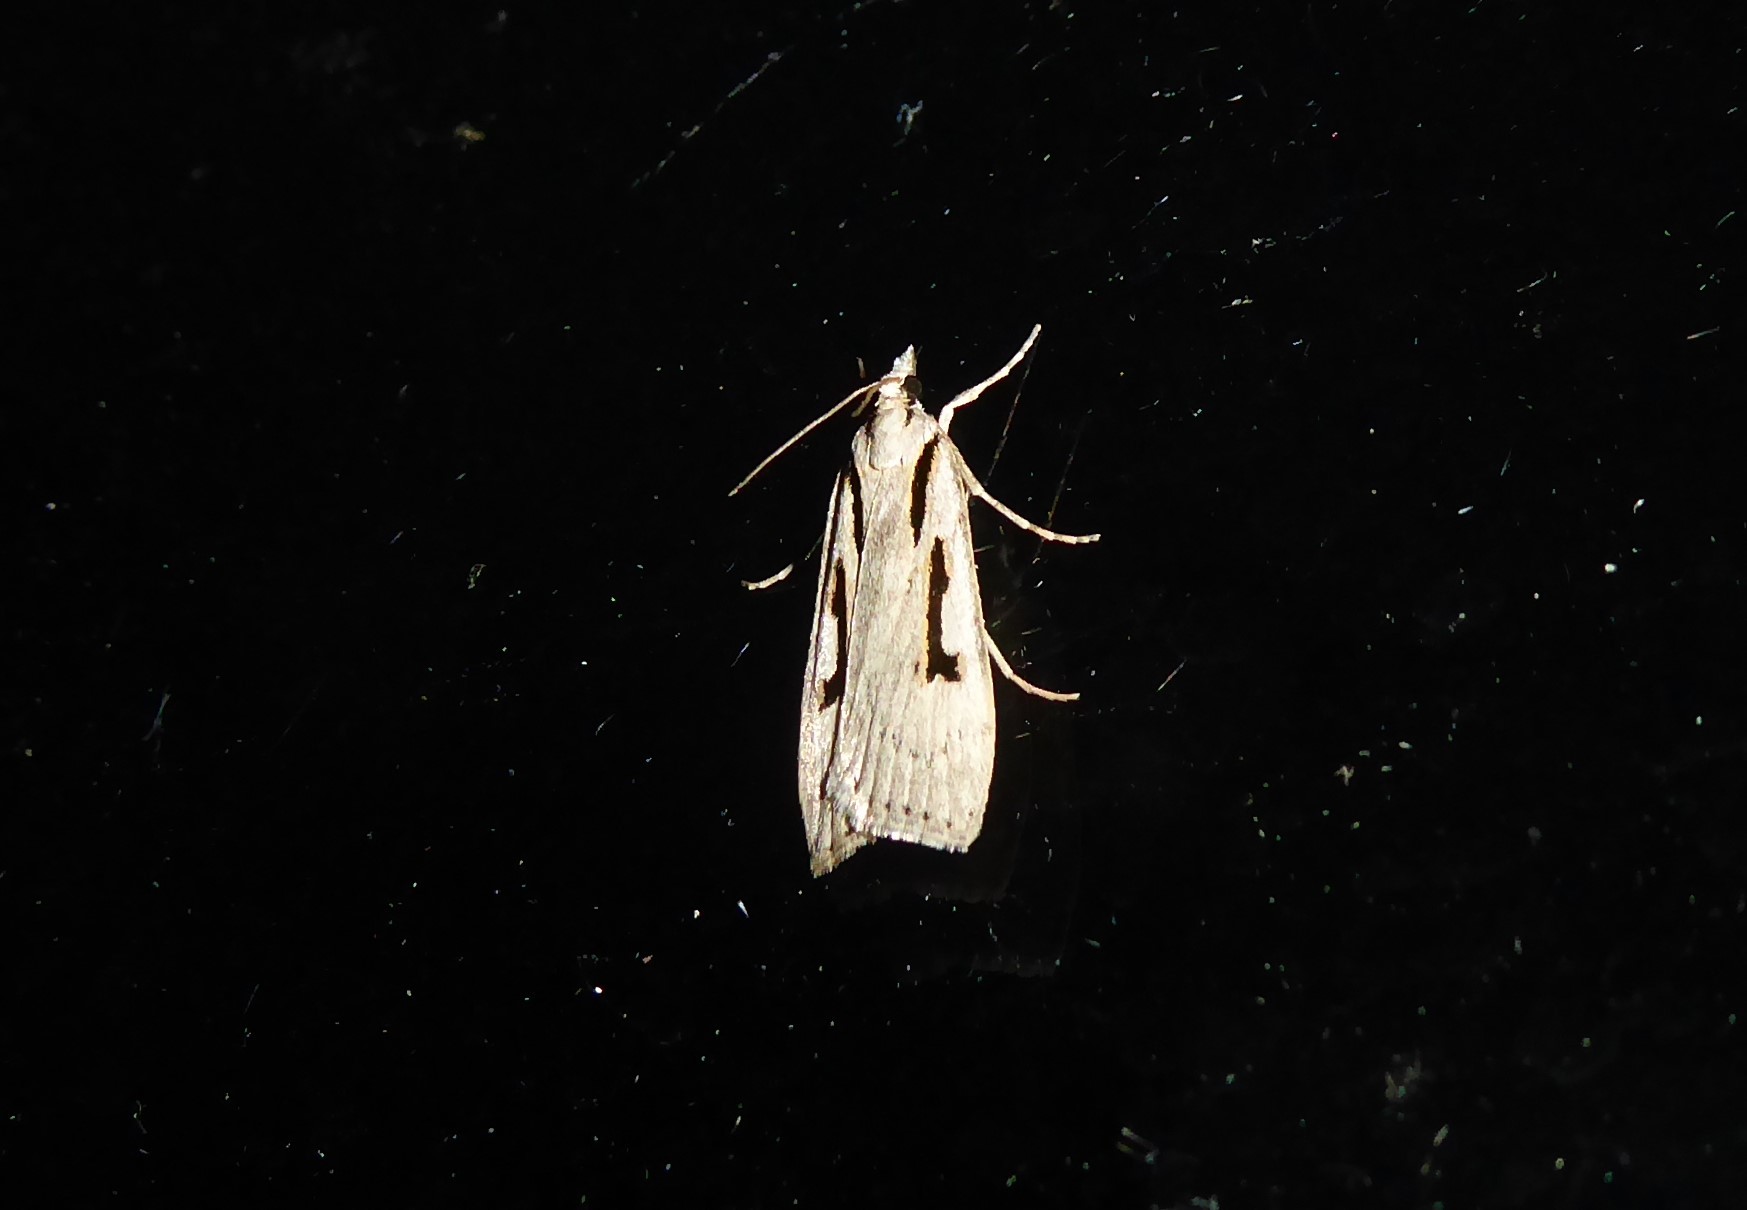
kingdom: Animalia
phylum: Arthropoda
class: Insecta
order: Lepidoptera
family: Crambidae
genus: Scoparia
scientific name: Scoparia rotuellus
